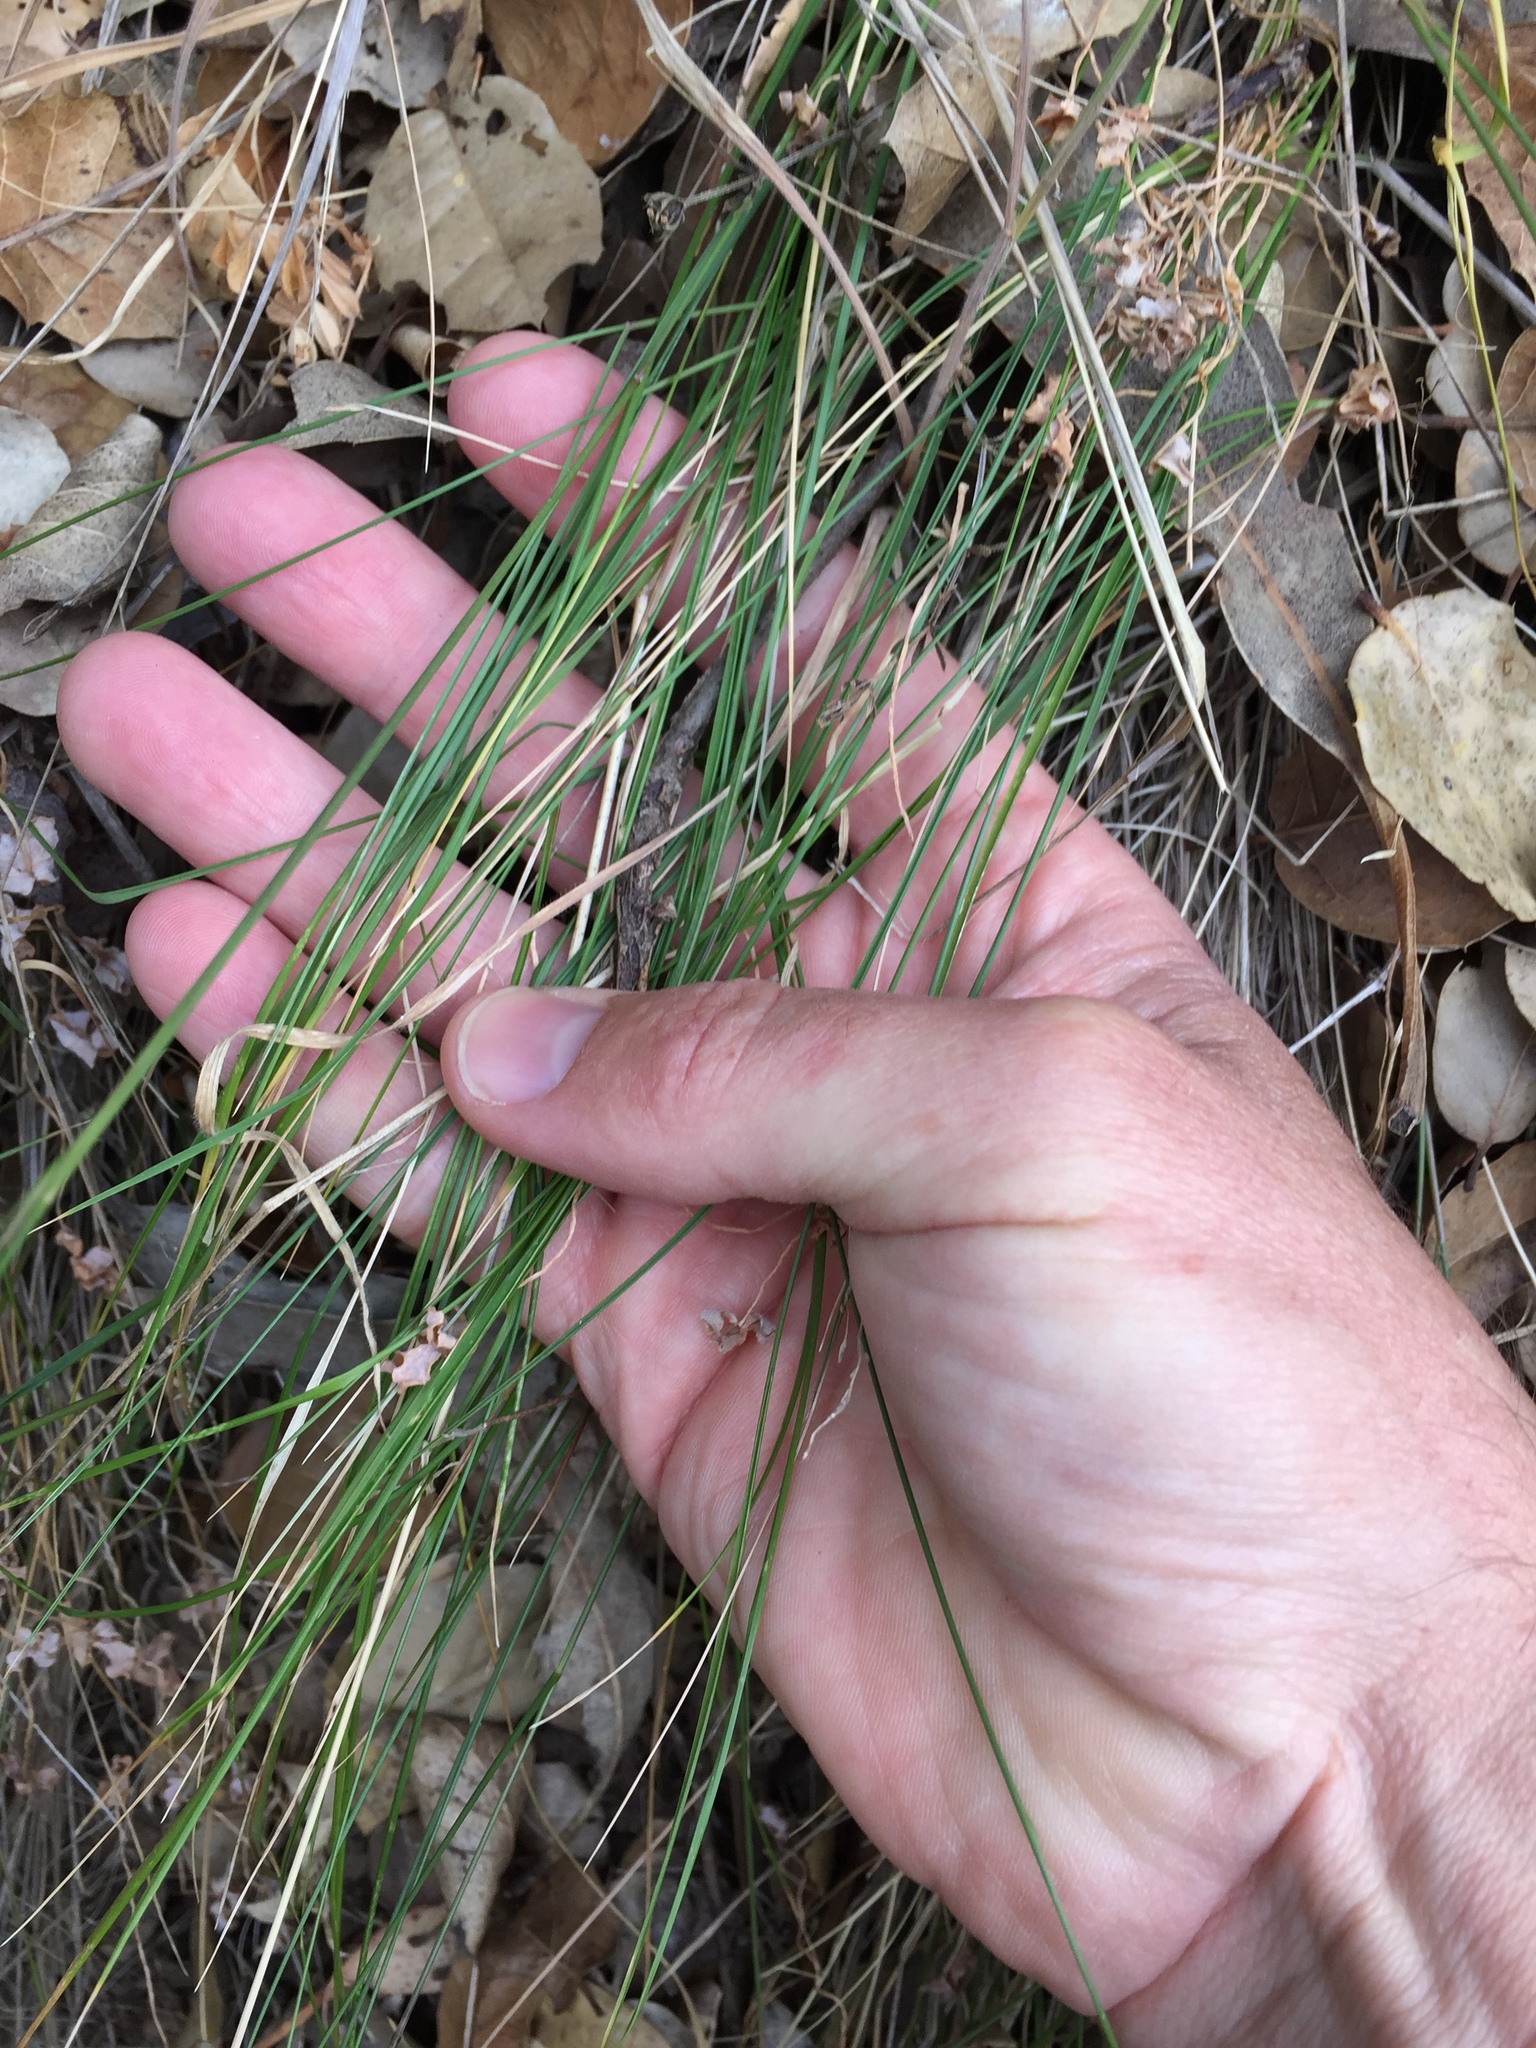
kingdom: Plantae
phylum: Tracheophyta
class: Liliopsida
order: Poales
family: Poaceae
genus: Nassella
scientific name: Nassella lepida
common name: Foothill needlegrass
